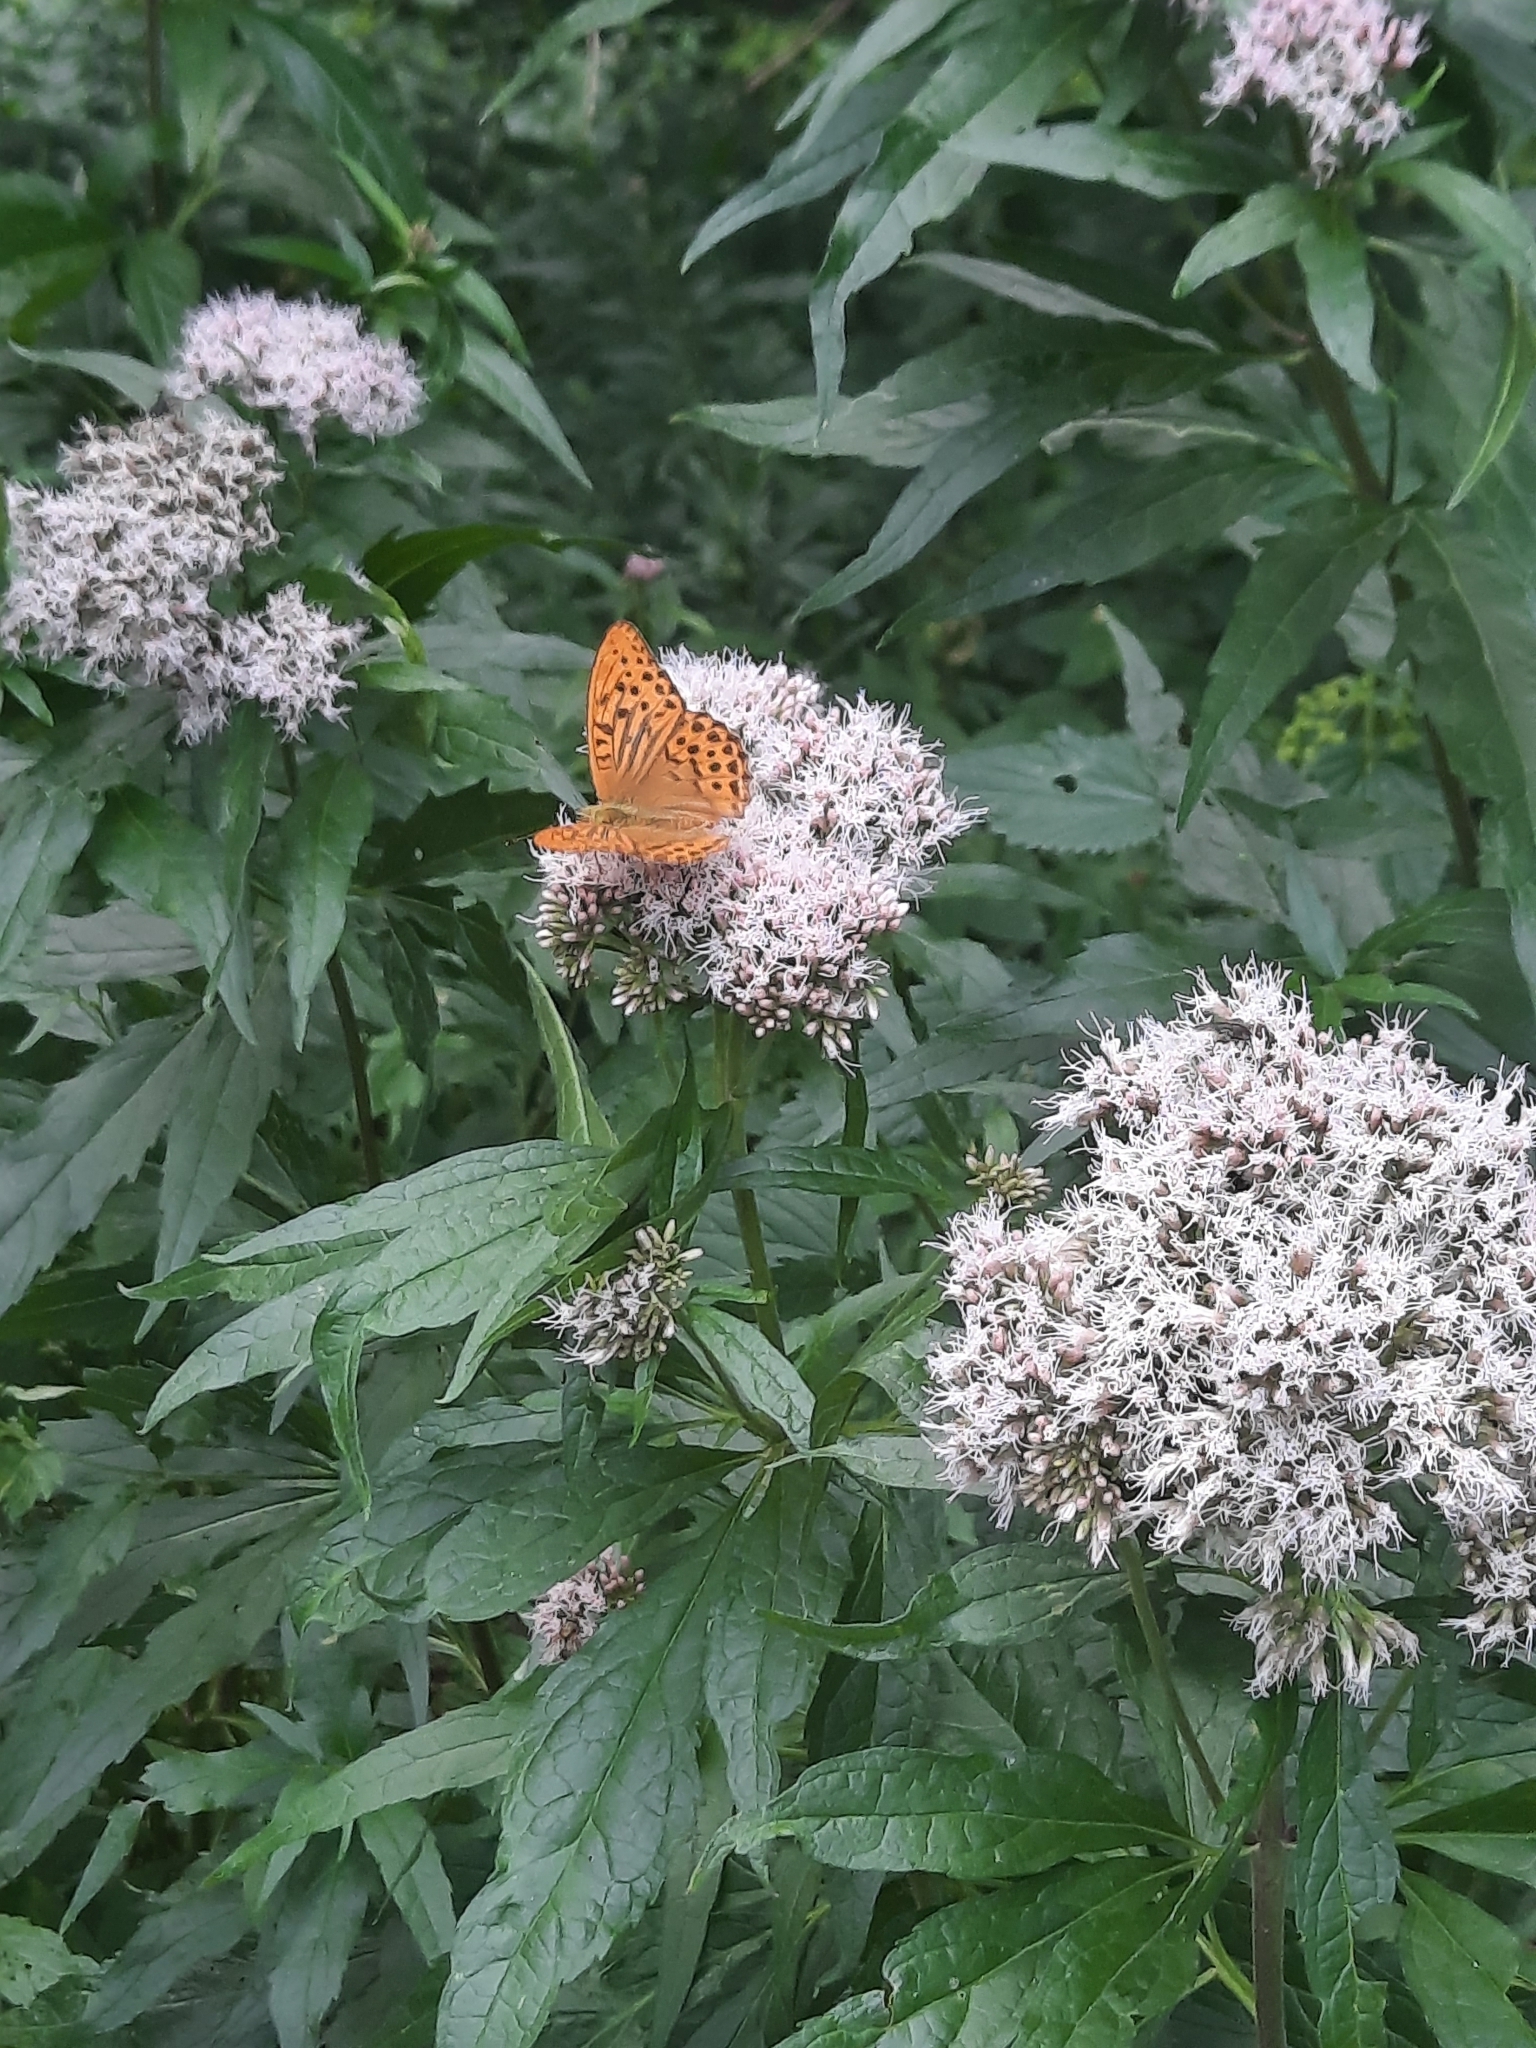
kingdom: Animalia
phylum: Arthropoda
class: Insecta
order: Lepidoptera
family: Nymphalidae
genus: Argynnis
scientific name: Argynnis paphia
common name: Silver-washed fritillary
